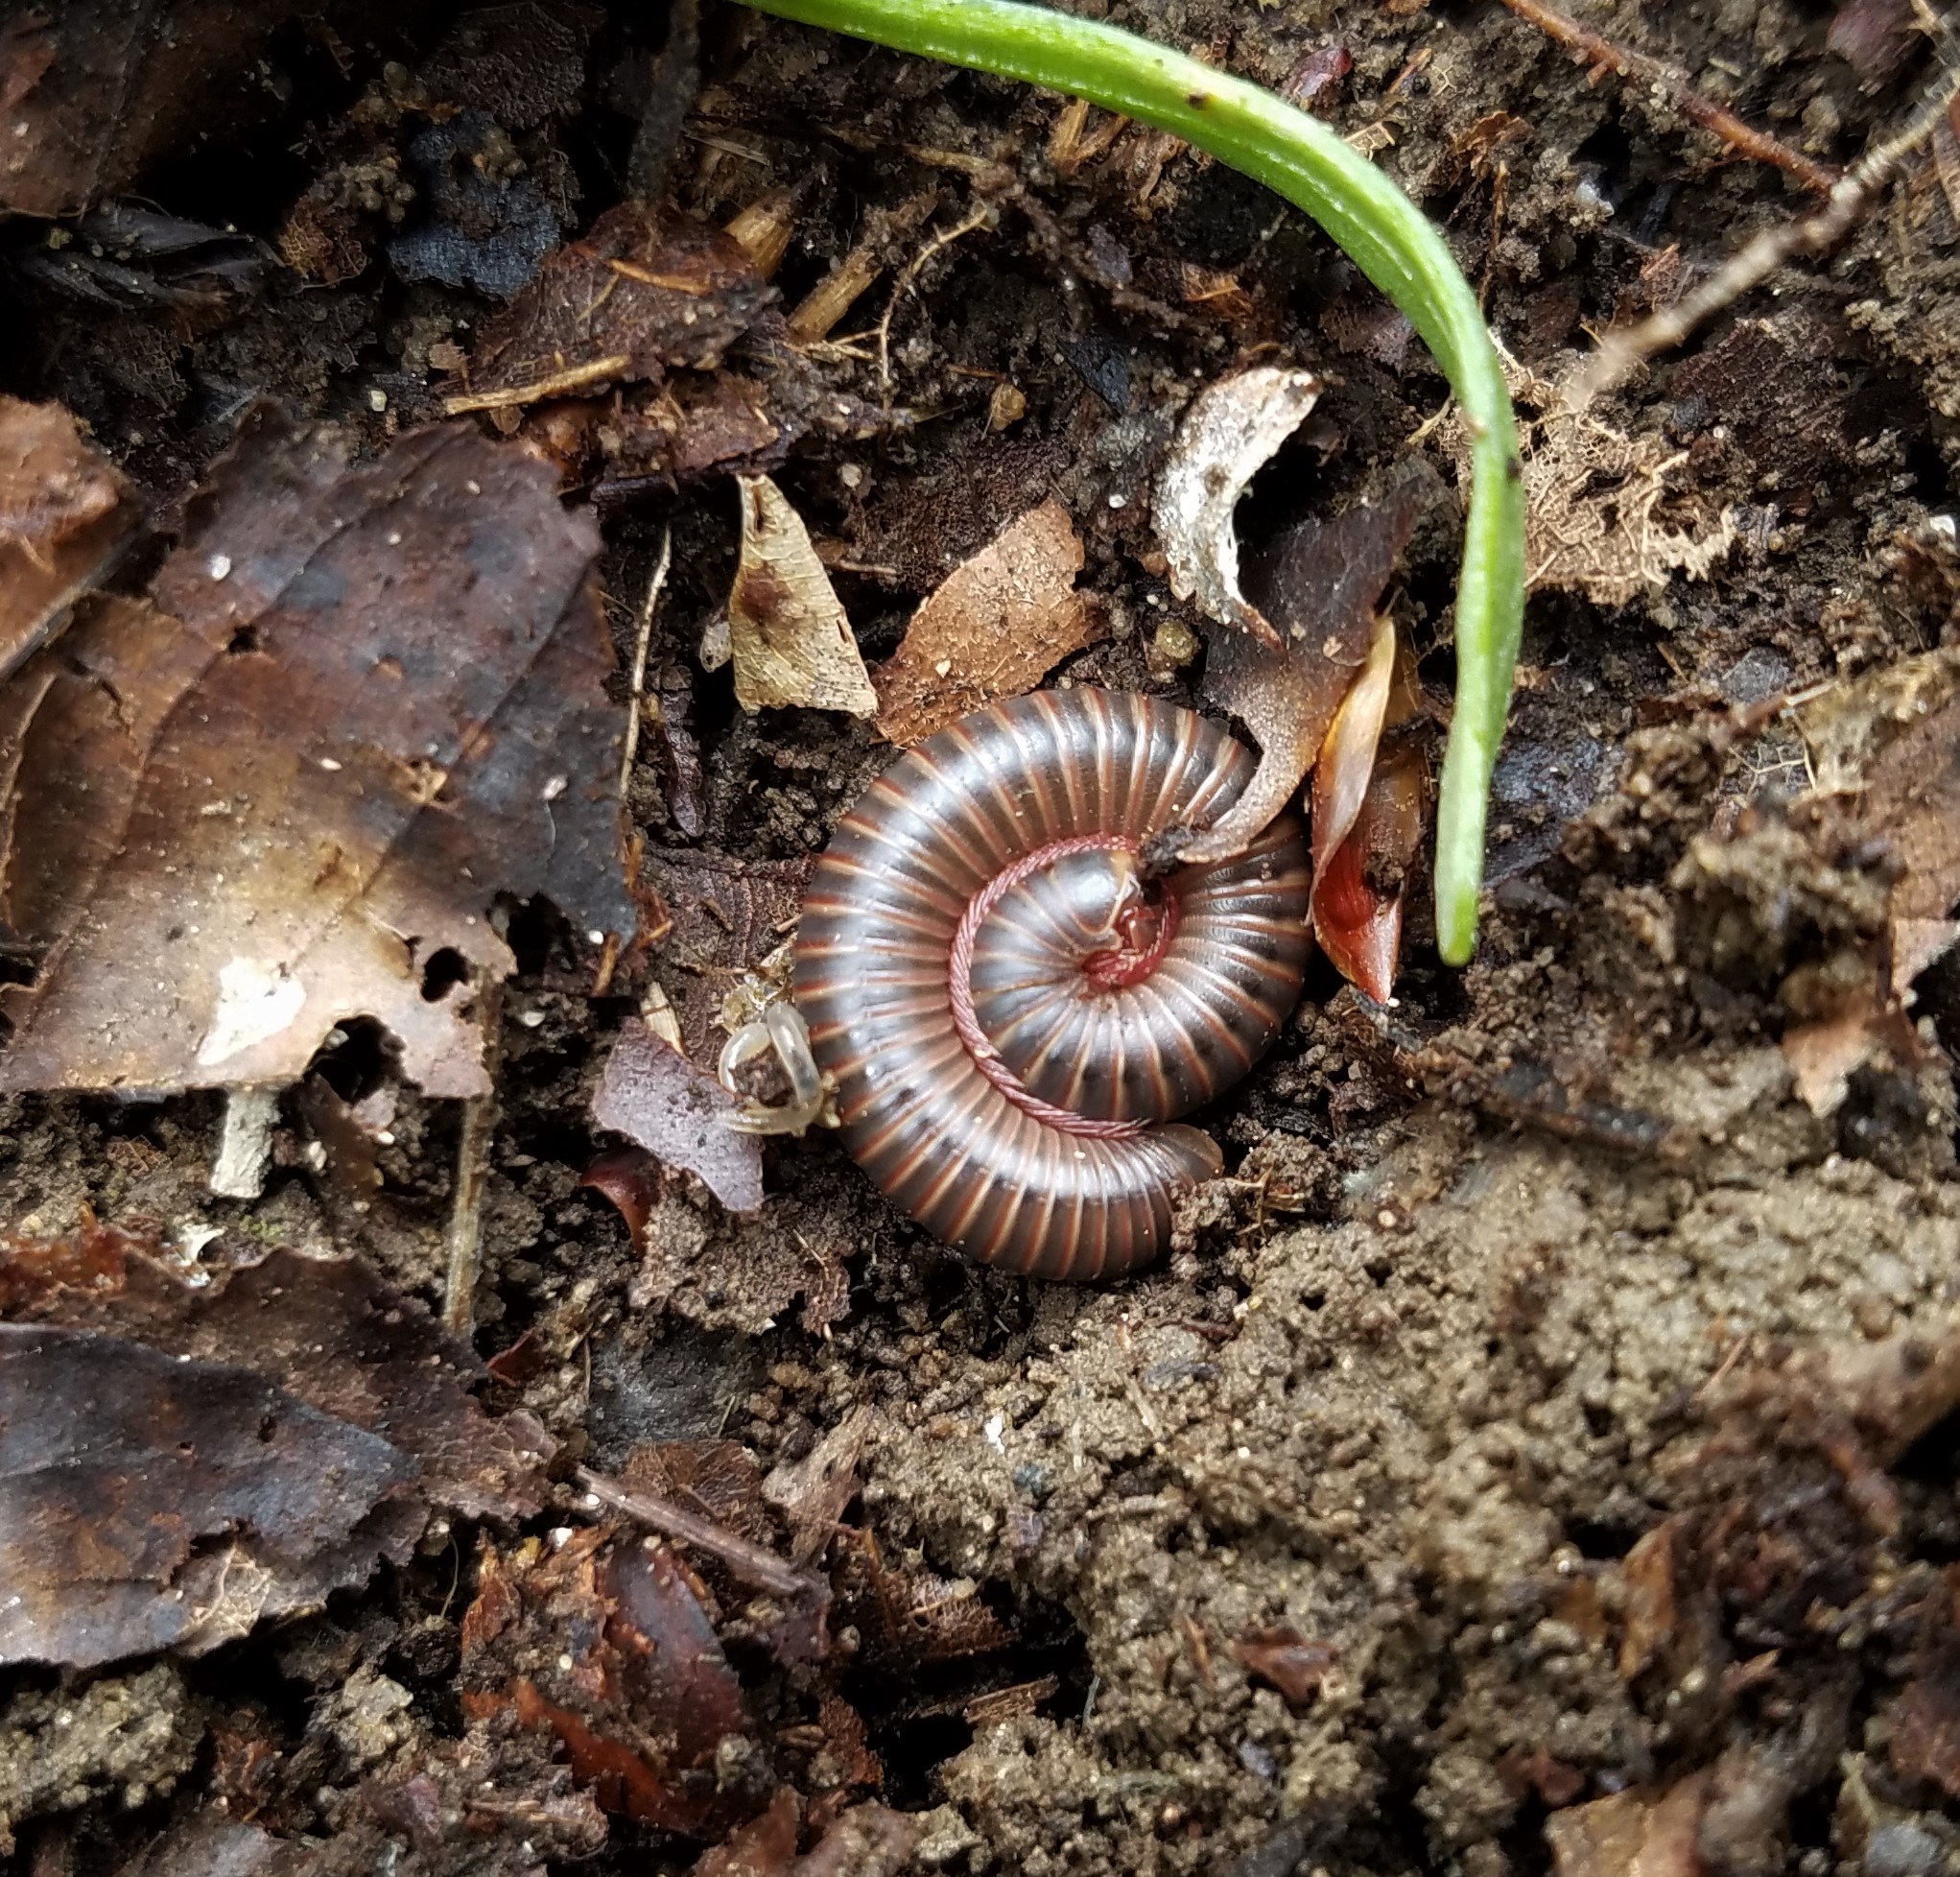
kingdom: Animalia
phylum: Arthropoda
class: Diplopoda
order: Spirobolida
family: Spirobolidae
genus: Narceus
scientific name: Narceus
